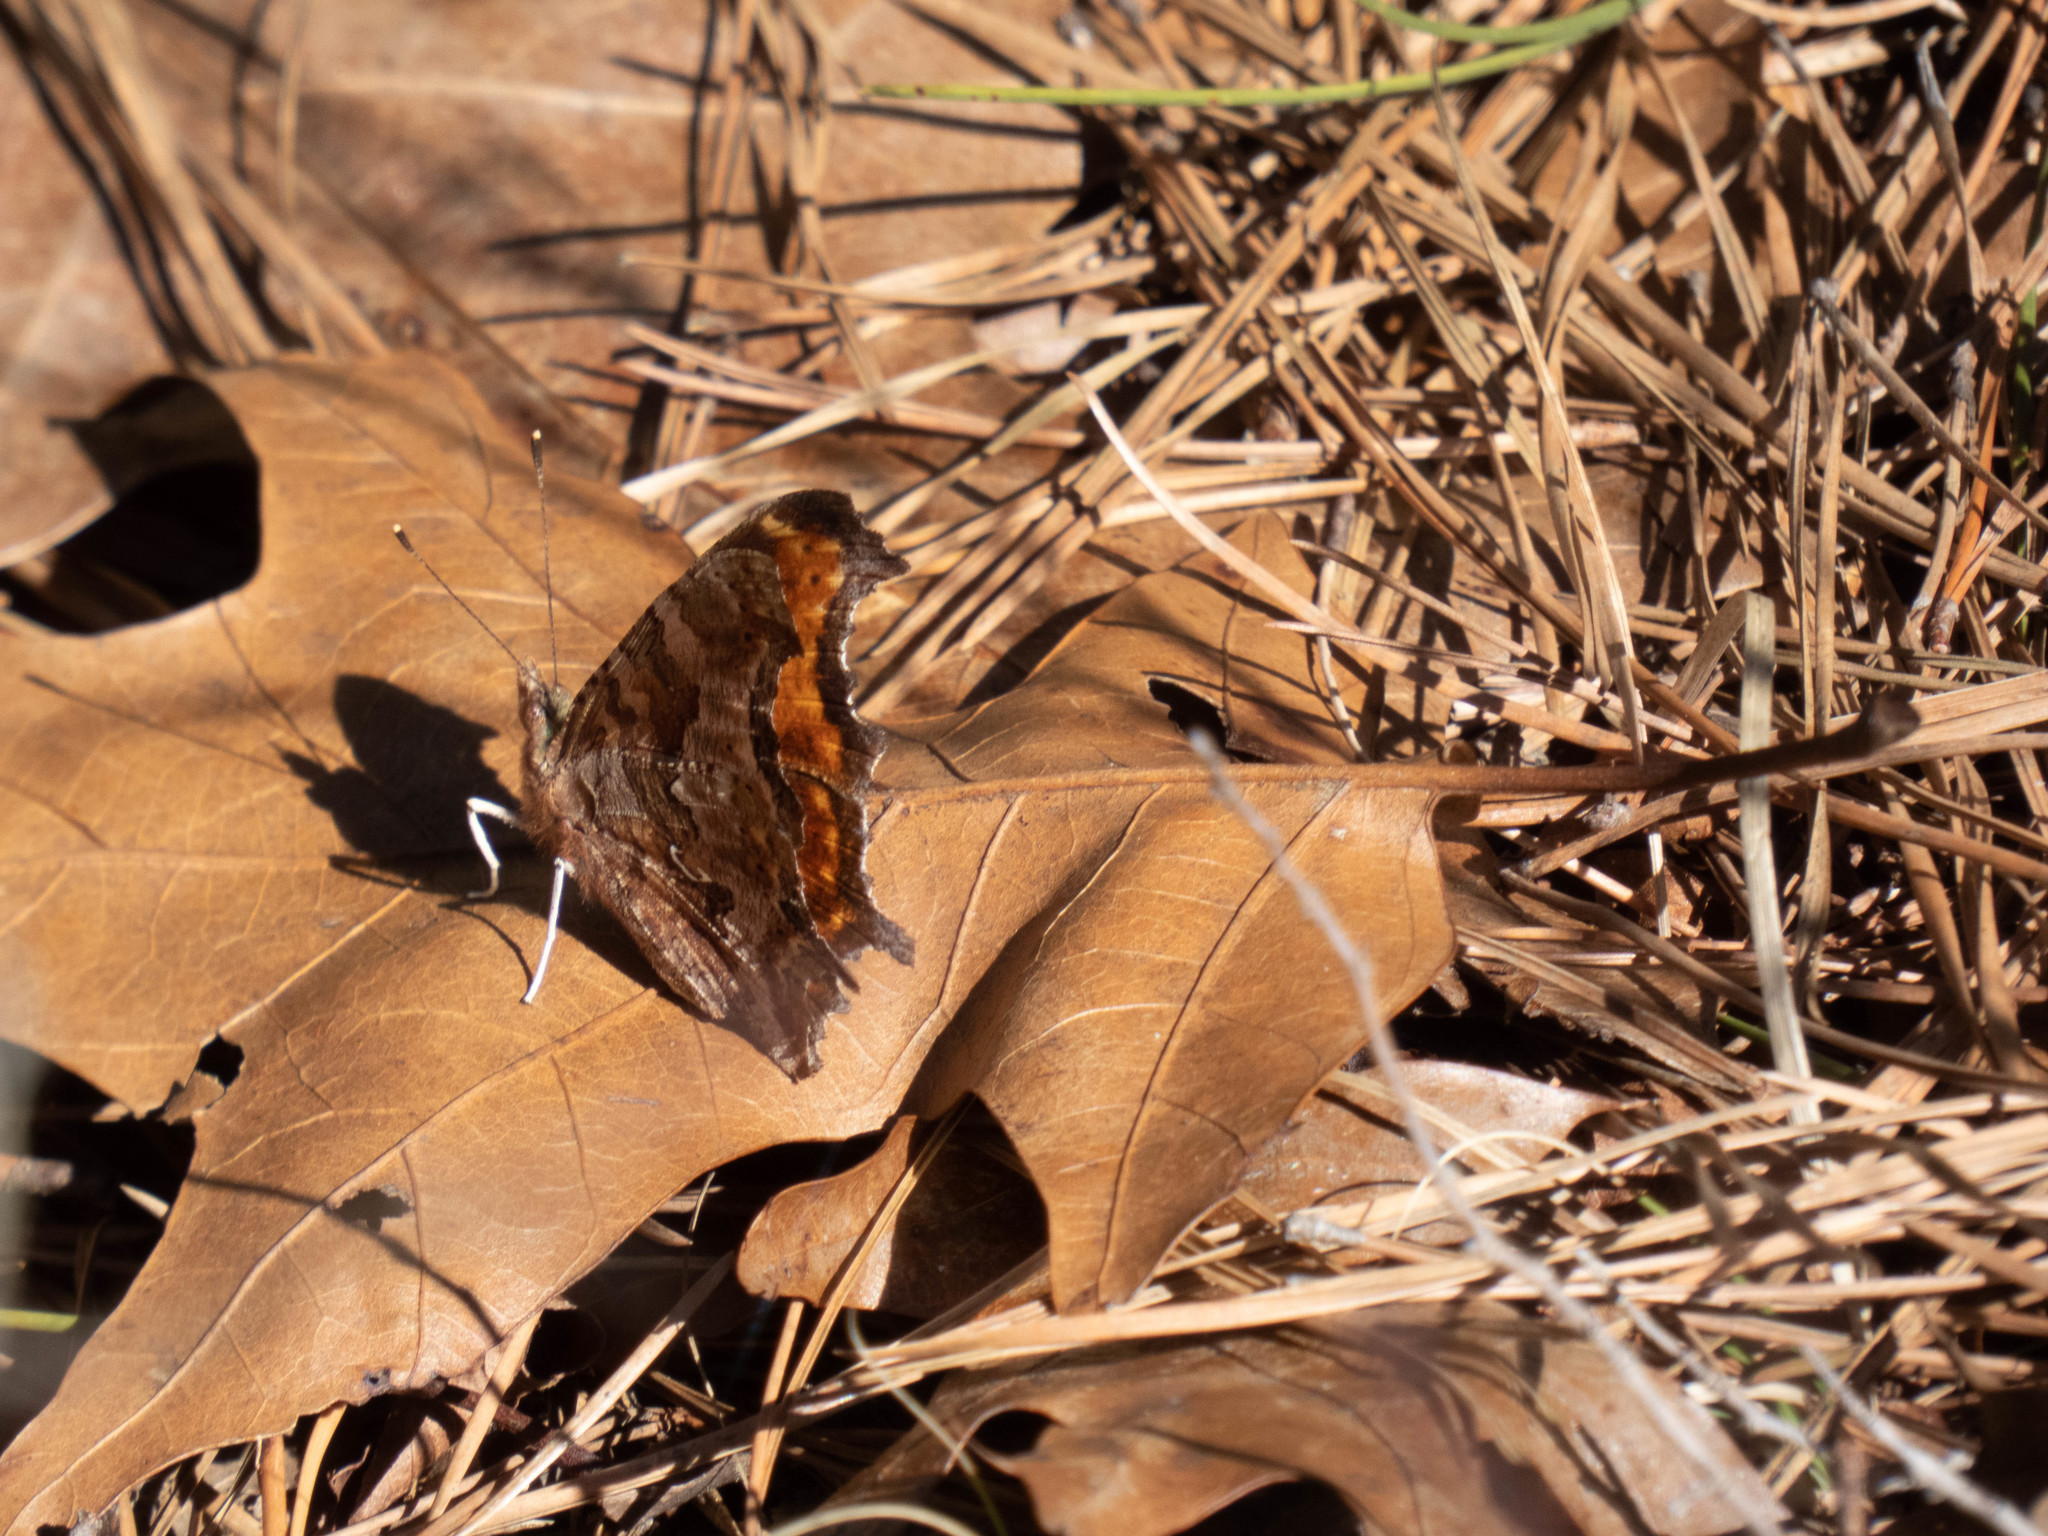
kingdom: Animalia
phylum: Arthropoda
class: Insecta
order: Lepidoptera
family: Nymphalidae
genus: Polygonia
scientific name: Polygonia comma
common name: Eastern comma
